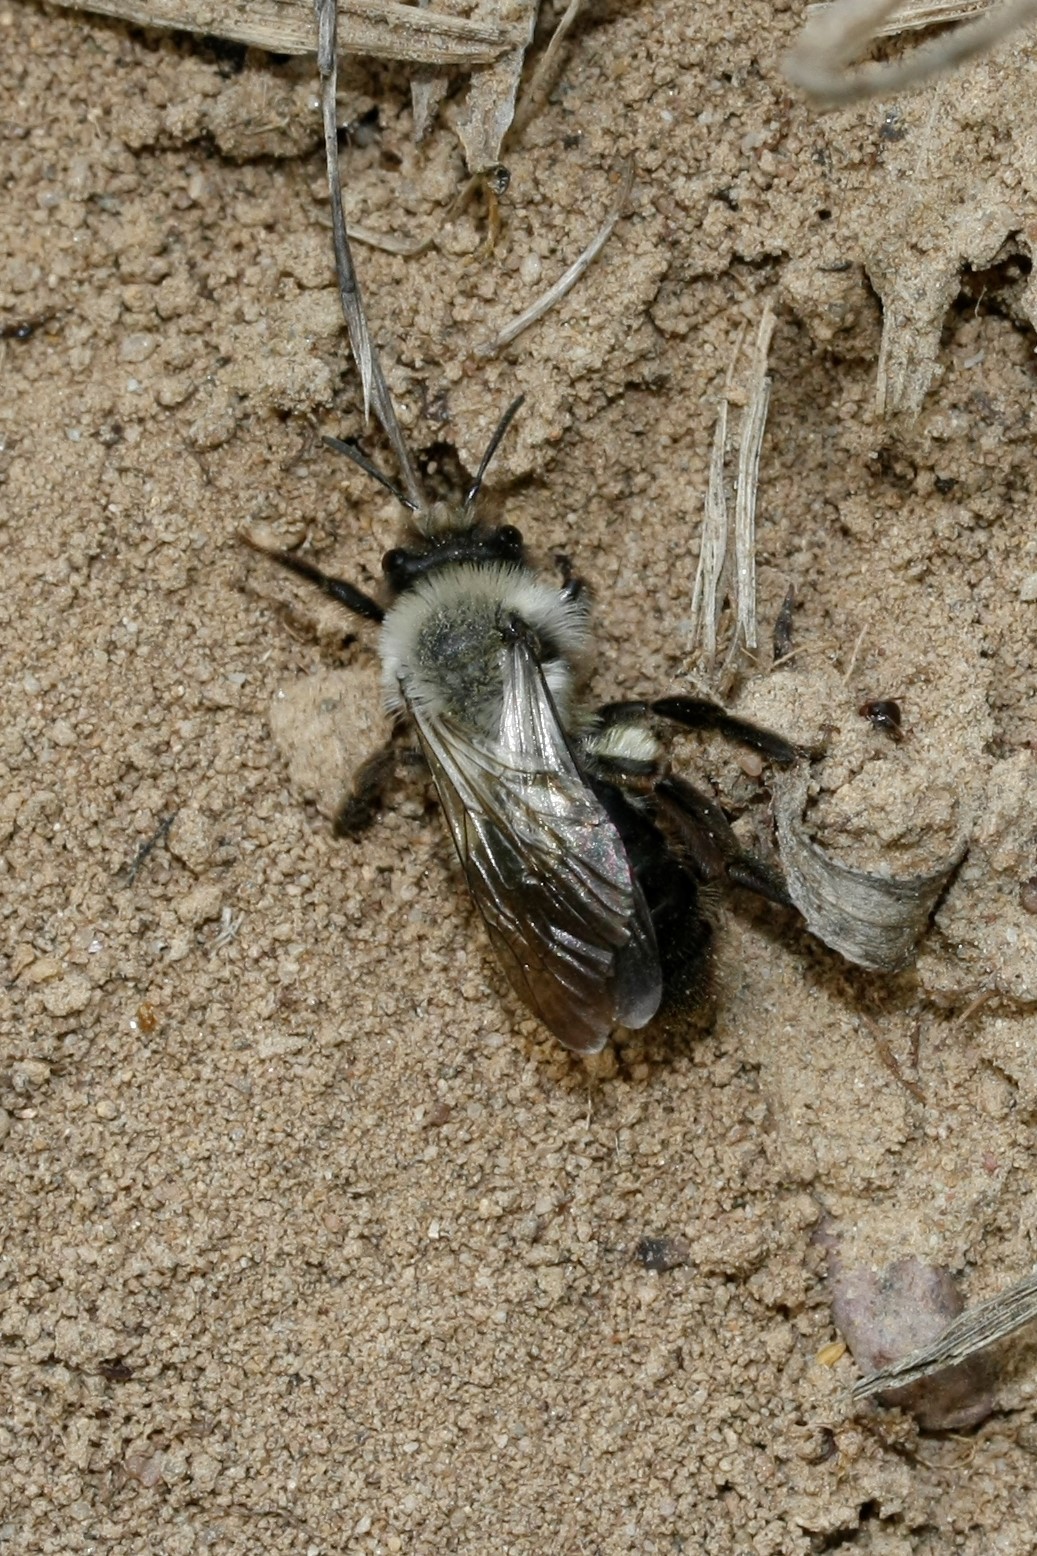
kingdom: Animalia
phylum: Arthropoda
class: Insecta
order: Hymenoptera
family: Andrenidae
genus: Andrena
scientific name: Andrena vaga
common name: Grey-backed mining bee
